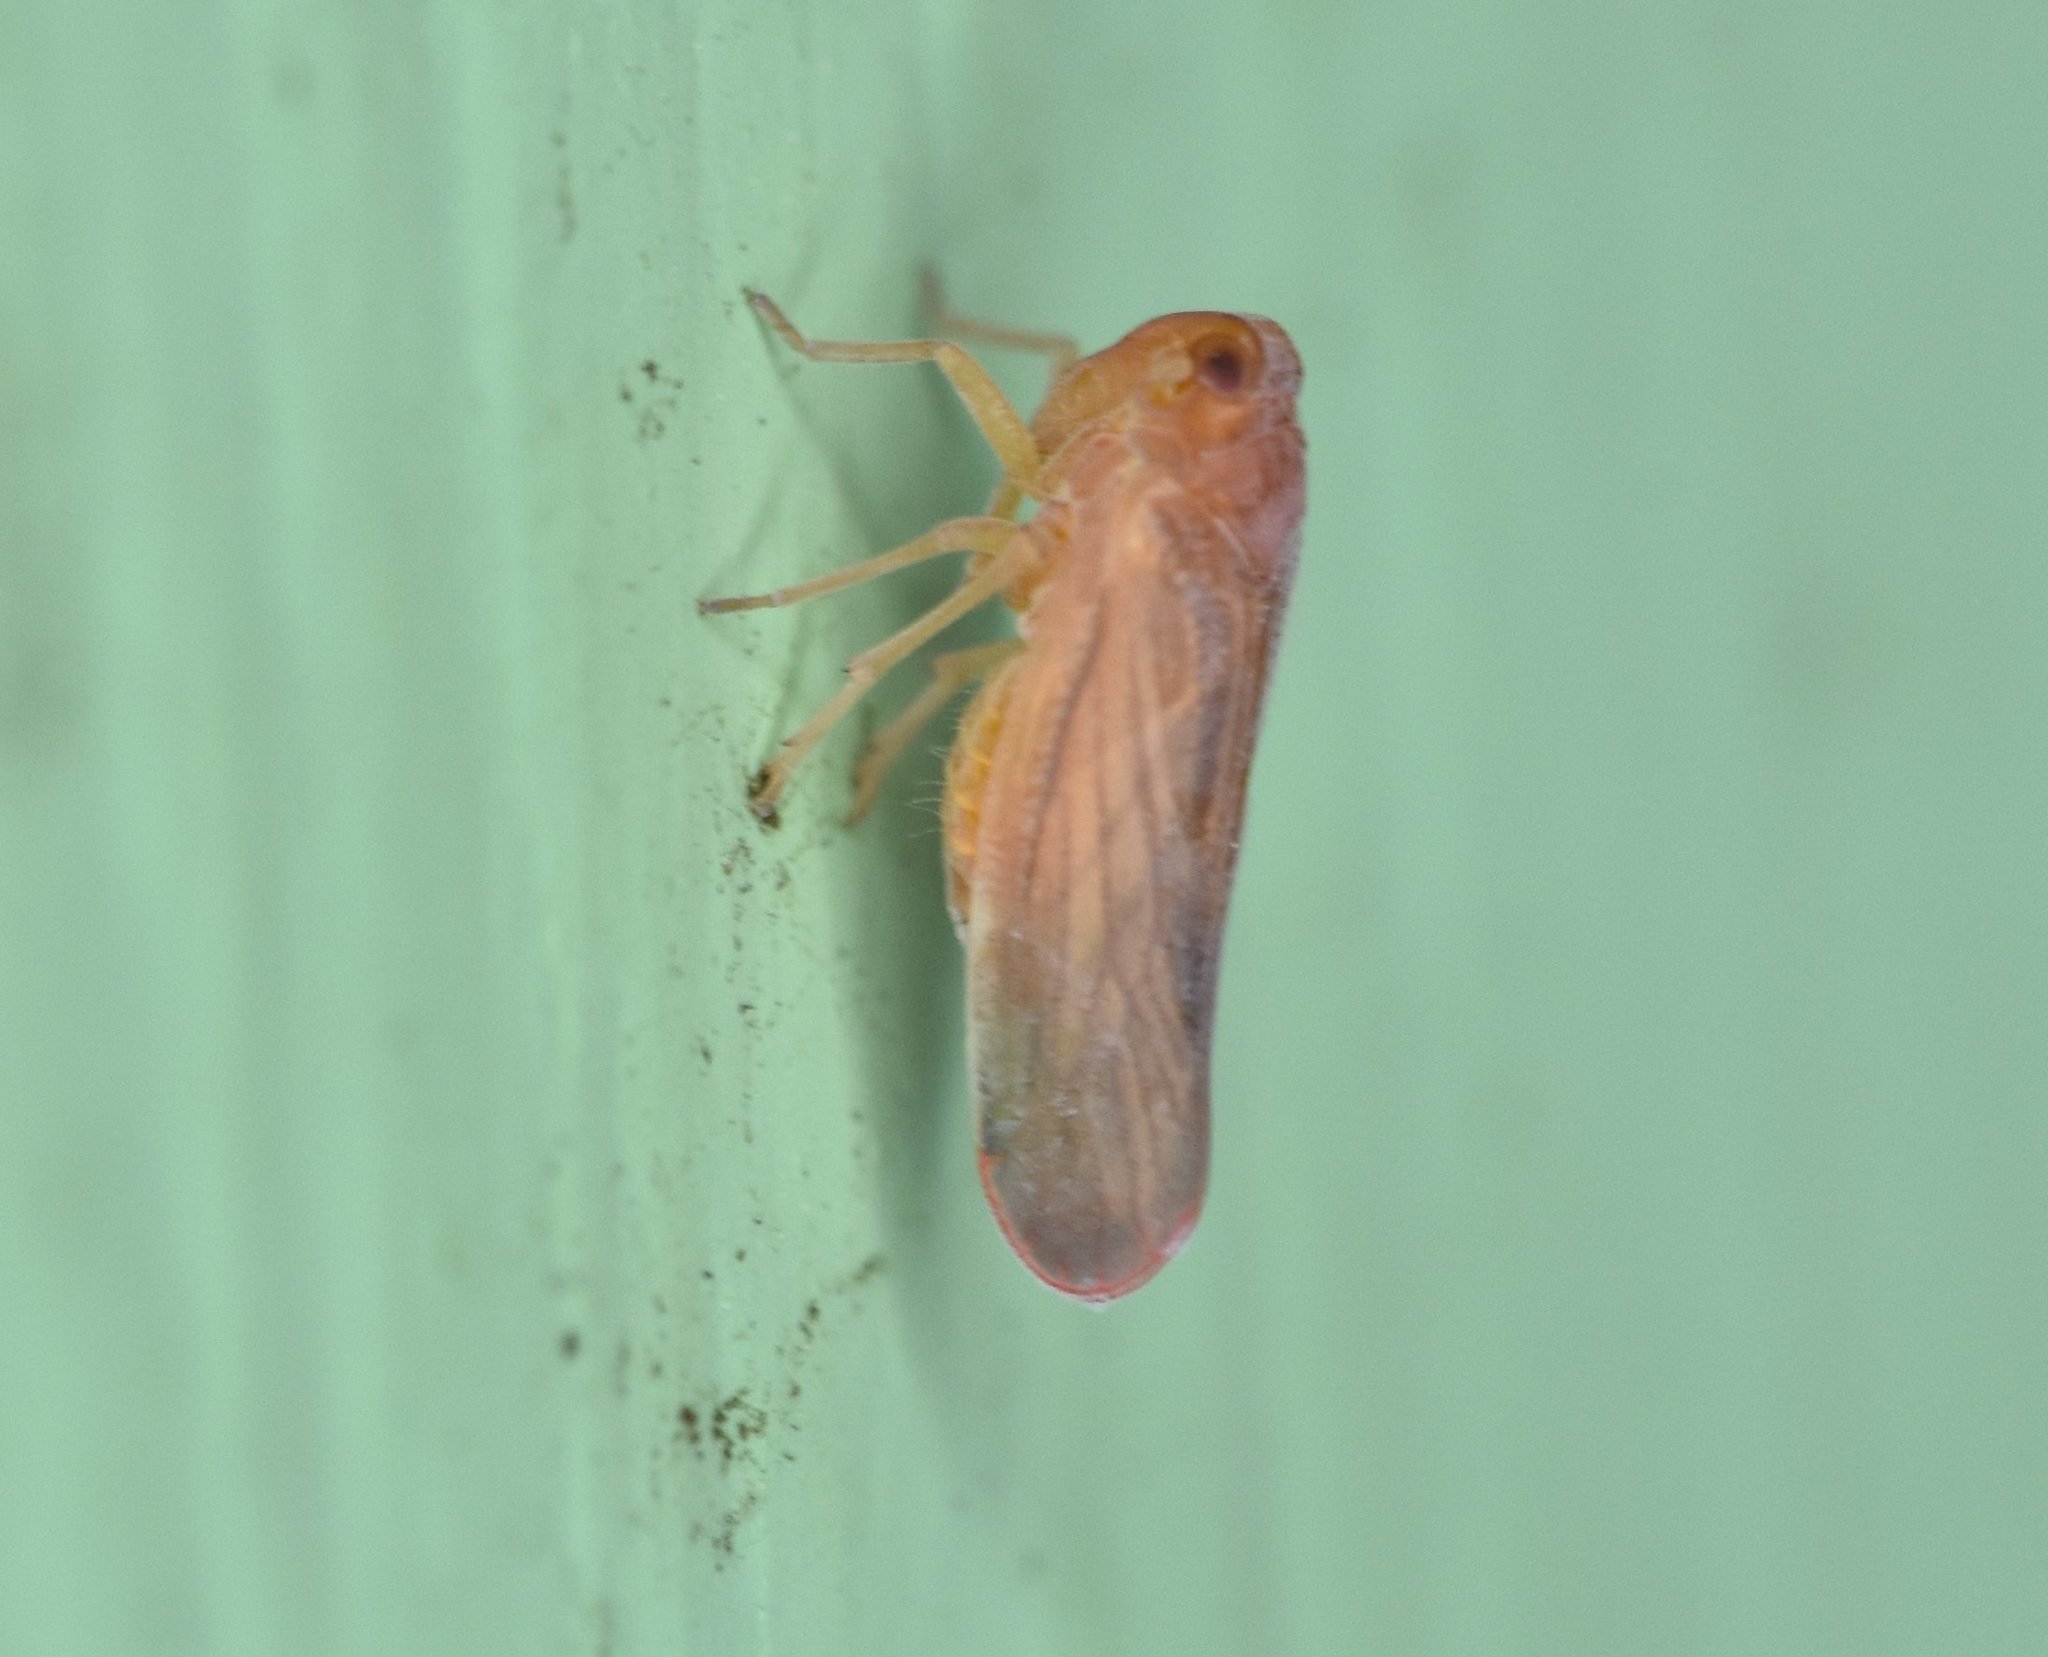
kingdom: Animalia
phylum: Arthropoda
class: Insecta
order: Hemiptera
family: Derbidae
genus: Omolicna
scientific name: Omolicna mcateei
